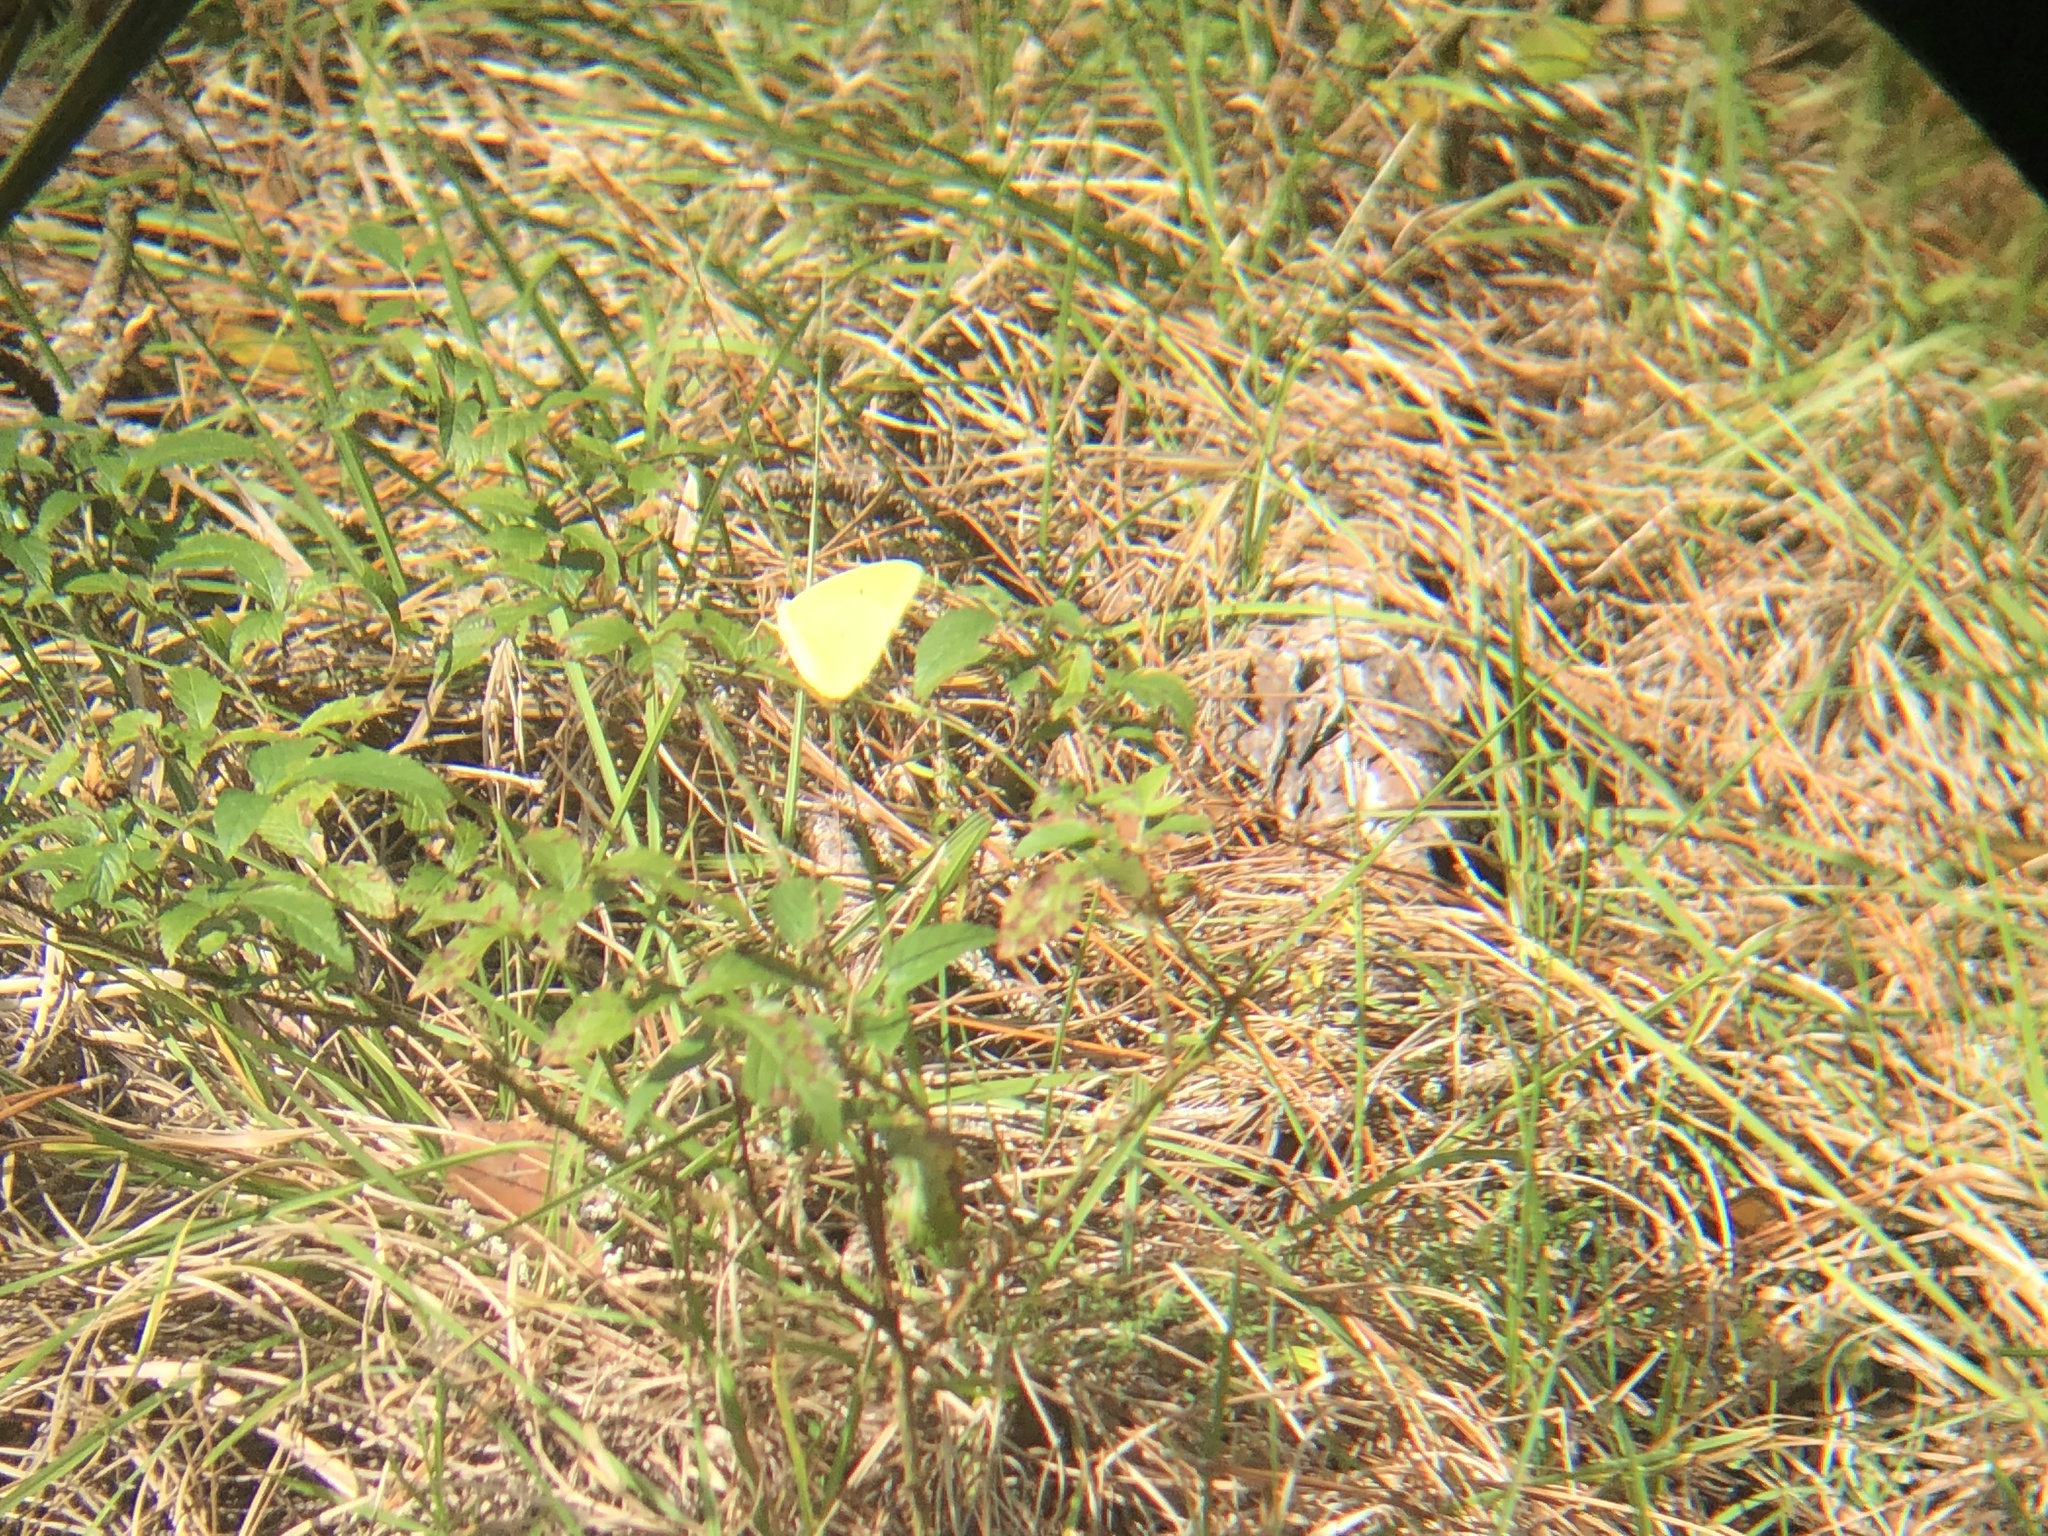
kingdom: Animalia
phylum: Arthropoda
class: Insecta
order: Lepidoptera
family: Pieridae
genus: Phoebis
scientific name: Phoebis sennae
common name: Cloudless sulphur
